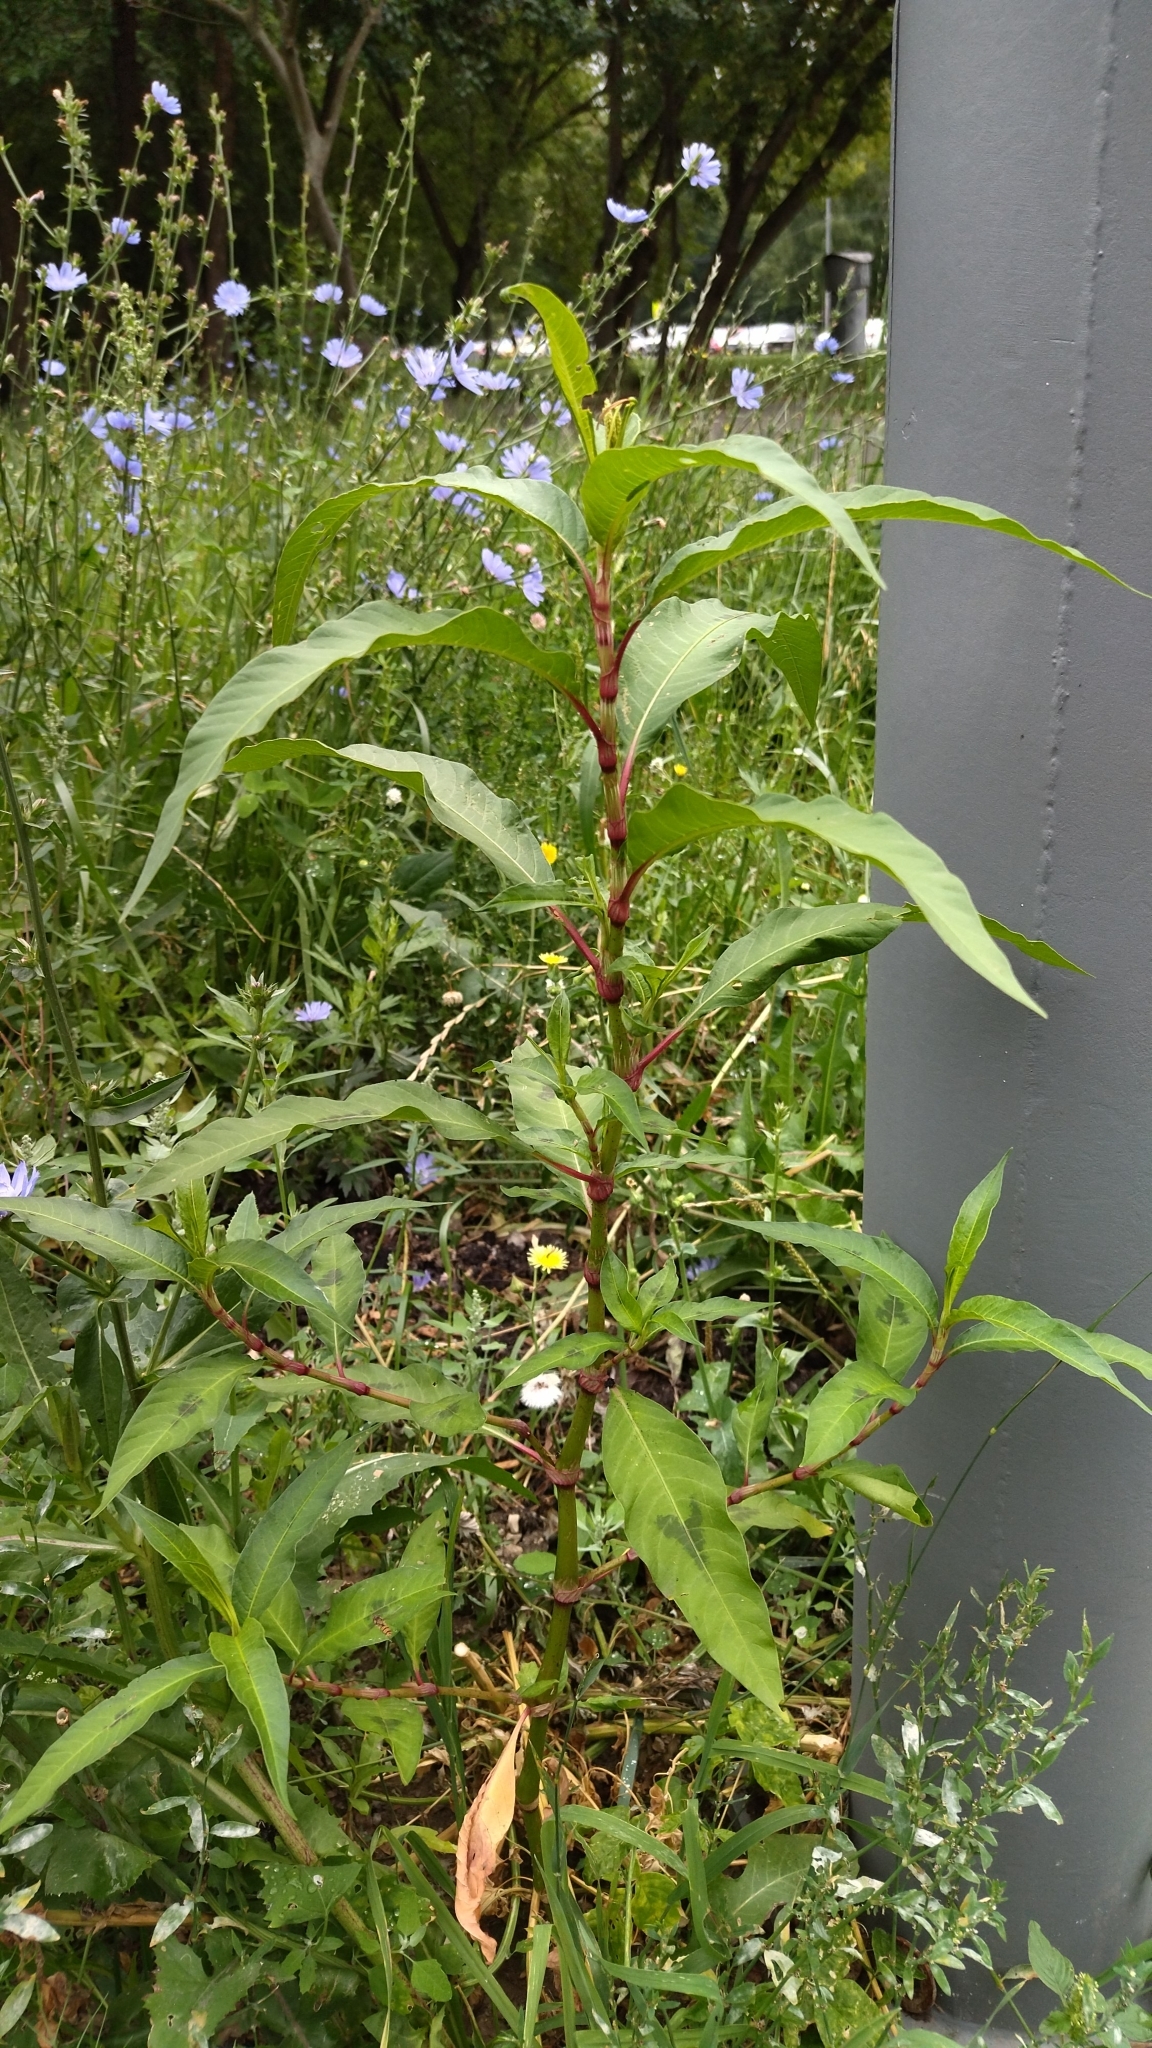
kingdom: Plantae
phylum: Tracheophyta
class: Magnoliopsida
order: Caryophyllales
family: Polygonaceae
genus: Persicaria
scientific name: Persicaria lapathifolia
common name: Curlytop knotweed
